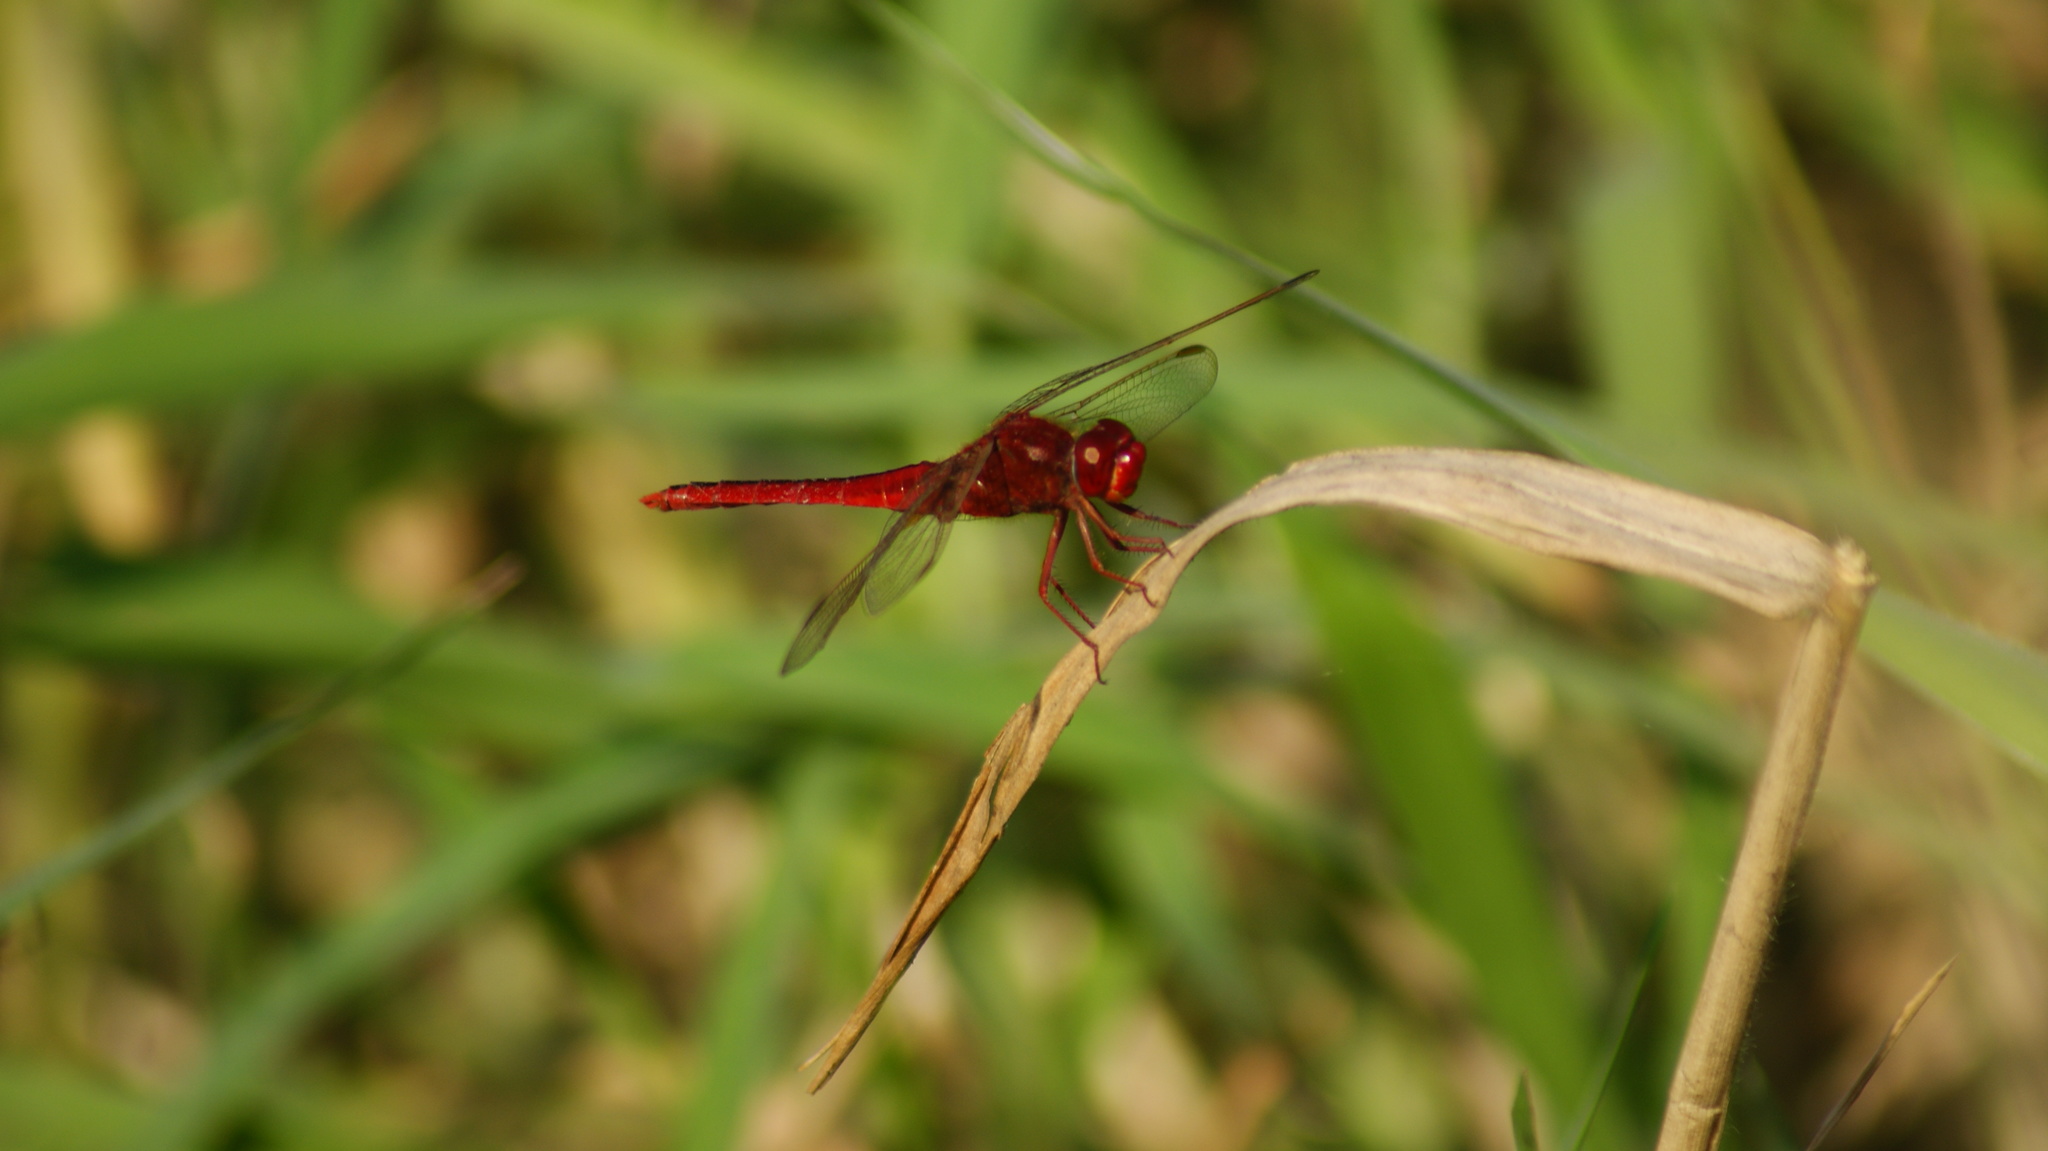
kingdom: Animalia
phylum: Arthropoda
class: Insecta
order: Odonata
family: Libellulidae
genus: Crocothemis
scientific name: Crocothemis servilia
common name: Scarlet skimmer
